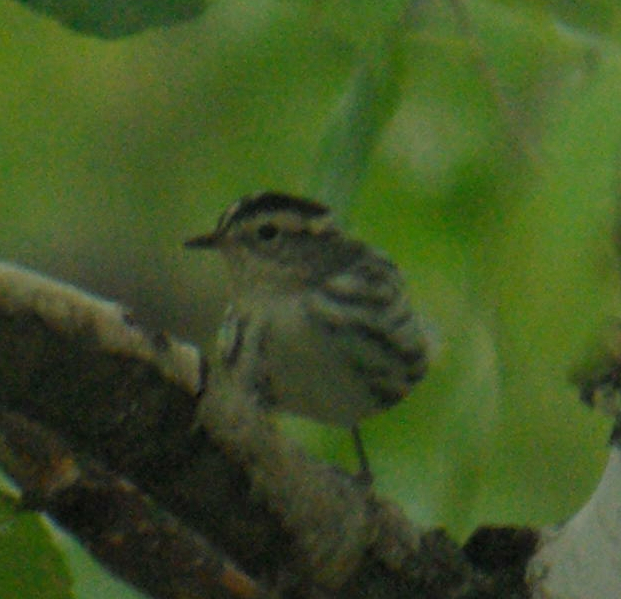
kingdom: Animalia
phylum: Chordata
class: Aves
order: Passeriformes
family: Parulidae
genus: Mniotilta
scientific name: Mniotilta varia
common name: Black-and-white warbler
